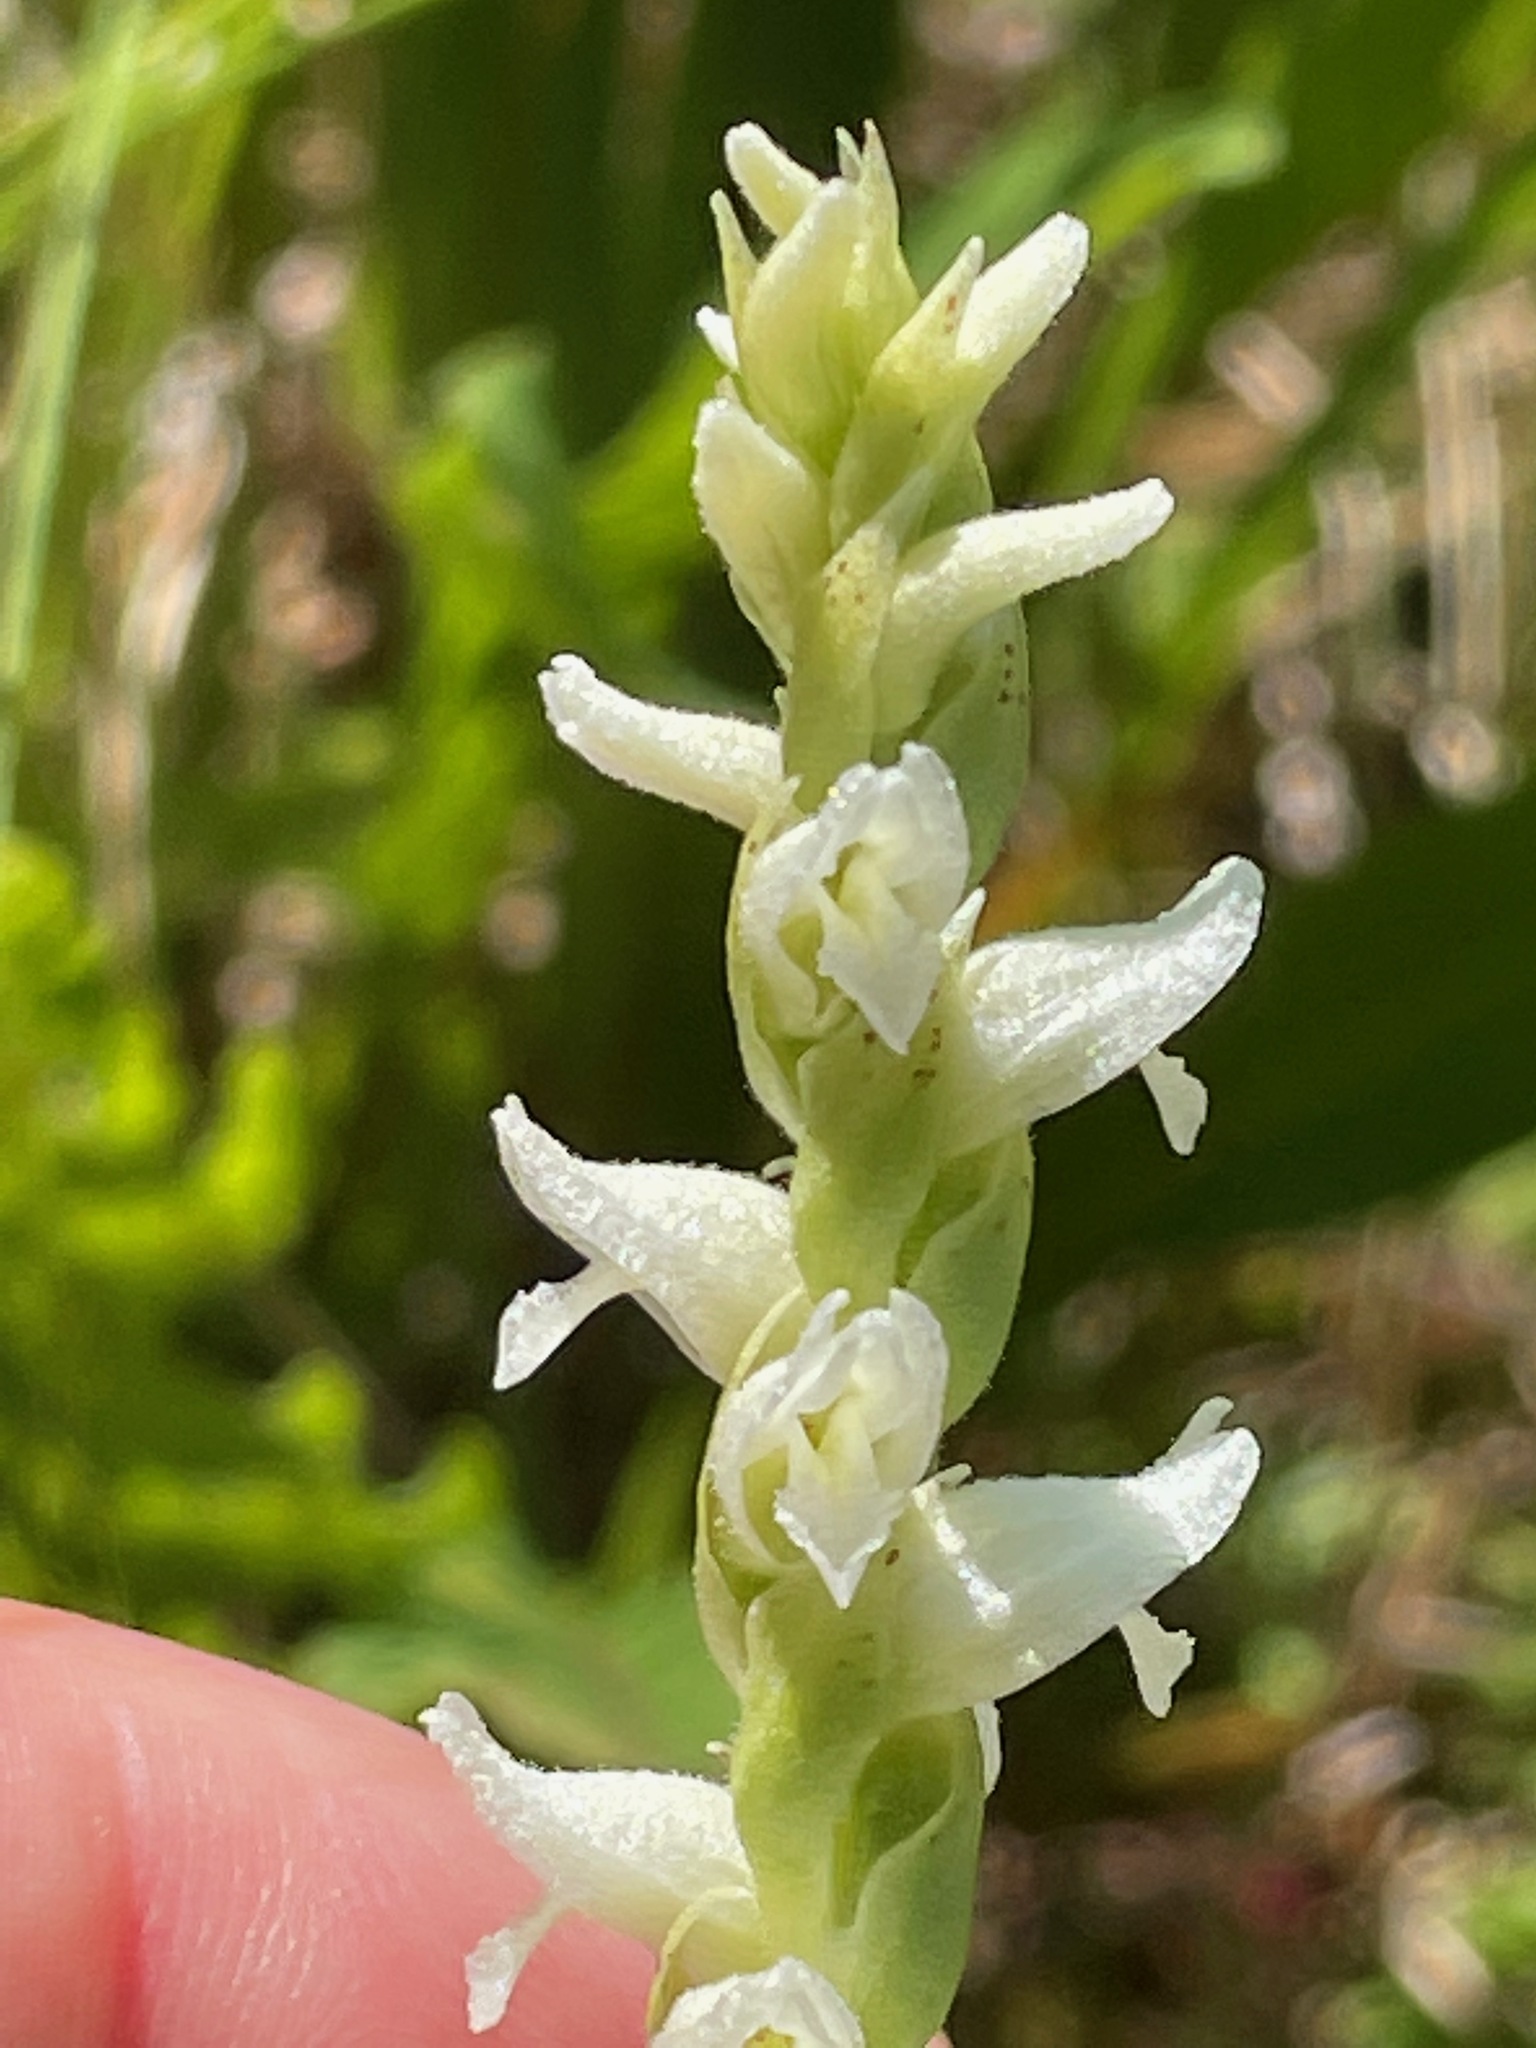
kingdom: Plantae
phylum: Tracheophyta
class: Liliopsida
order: Asparagales
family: Orchidaceae
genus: Spiranthes
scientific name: Spiranthes romanzoffiana
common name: Irish lady's-tresses
